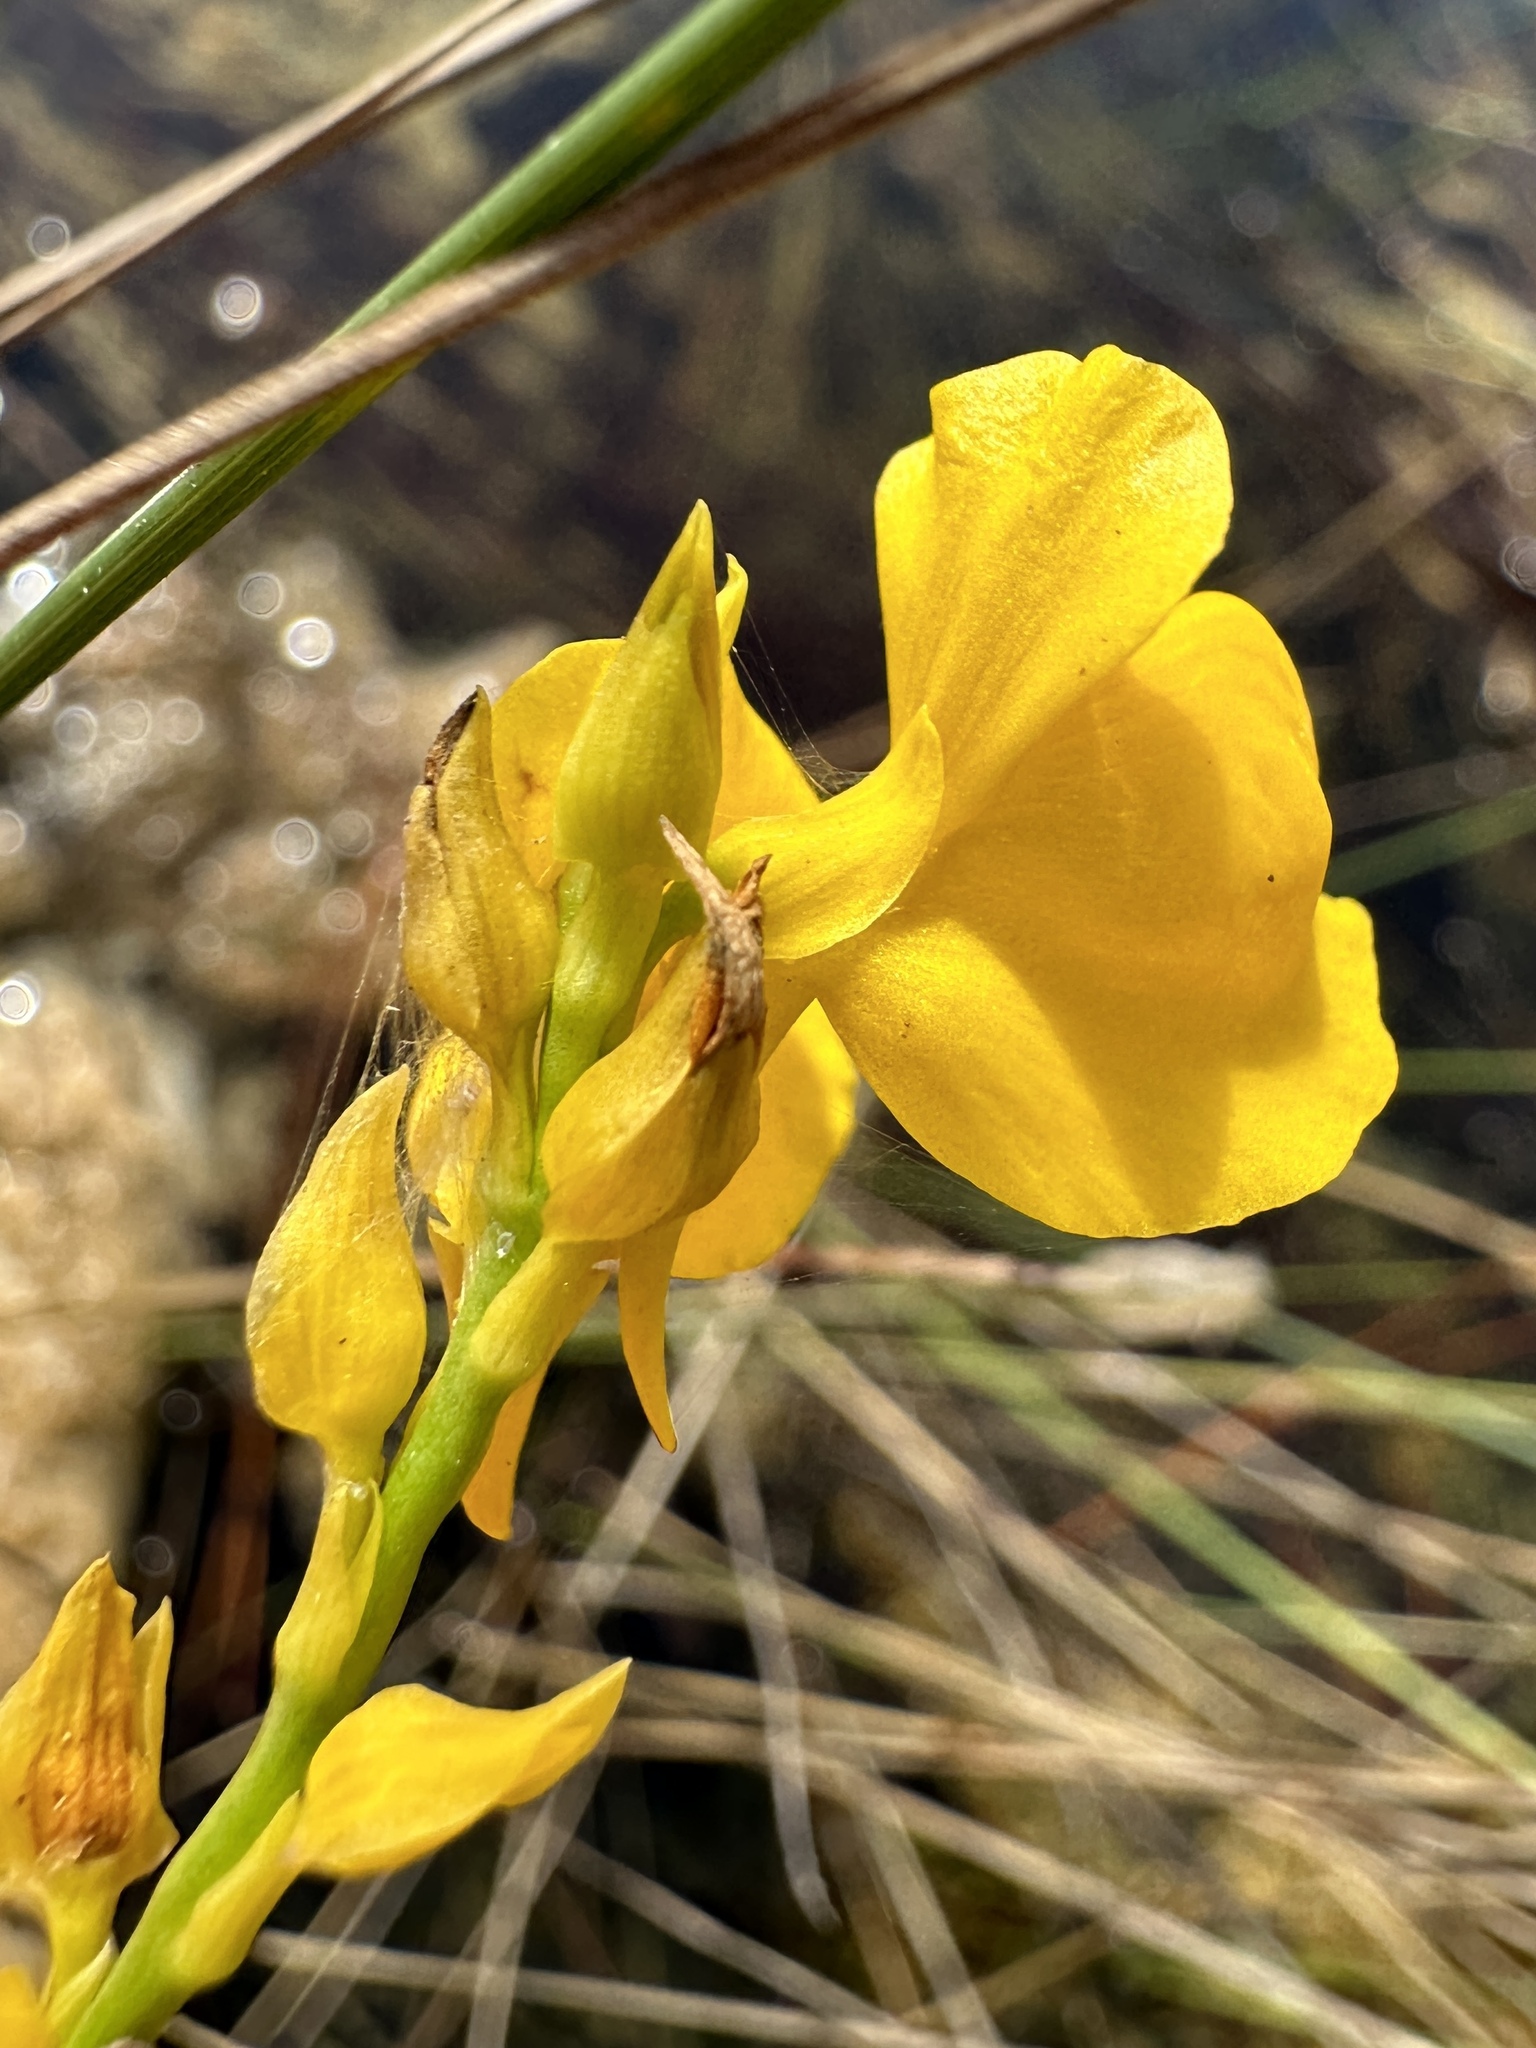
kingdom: Plantae
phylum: Tracheophyta
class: Magnoliopsida
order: Lamiales
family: Lentibulariaceae
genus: Utricularia
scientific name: Utricularia cornuta
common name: Horned bladderwort
